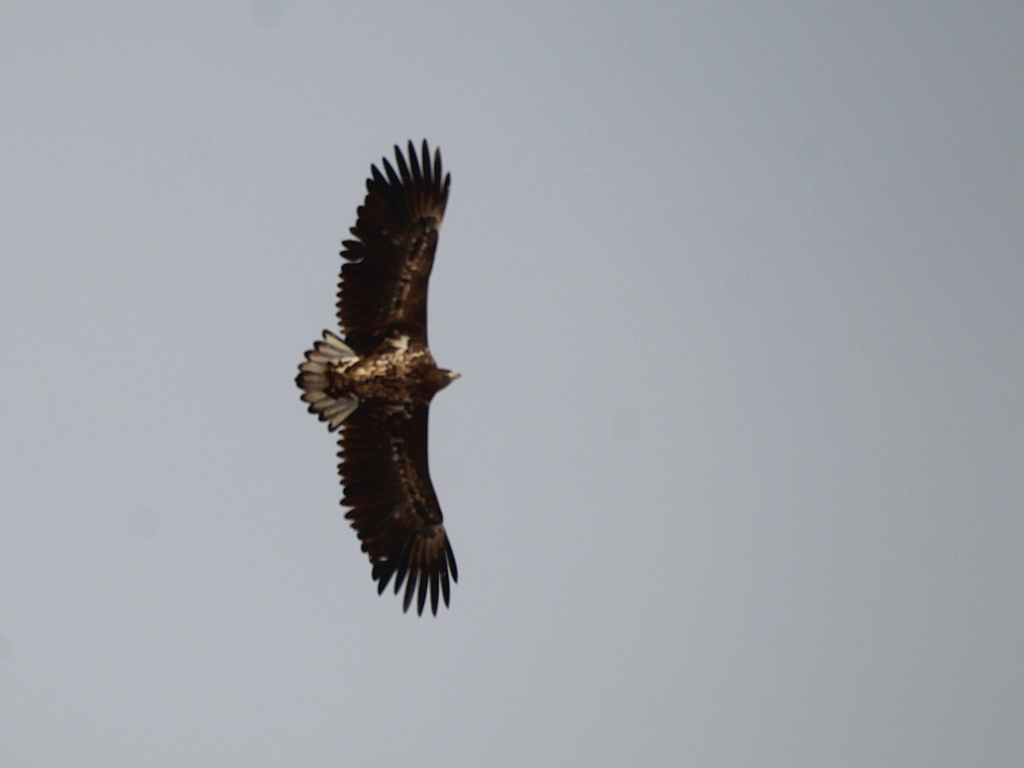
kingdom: Animalia
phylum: Chordata
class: Aves
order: Accipitriformes
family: Accipitridae
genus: Haliaeetus
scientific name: Haliaeetus albicilla
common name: White-tailed eagle
